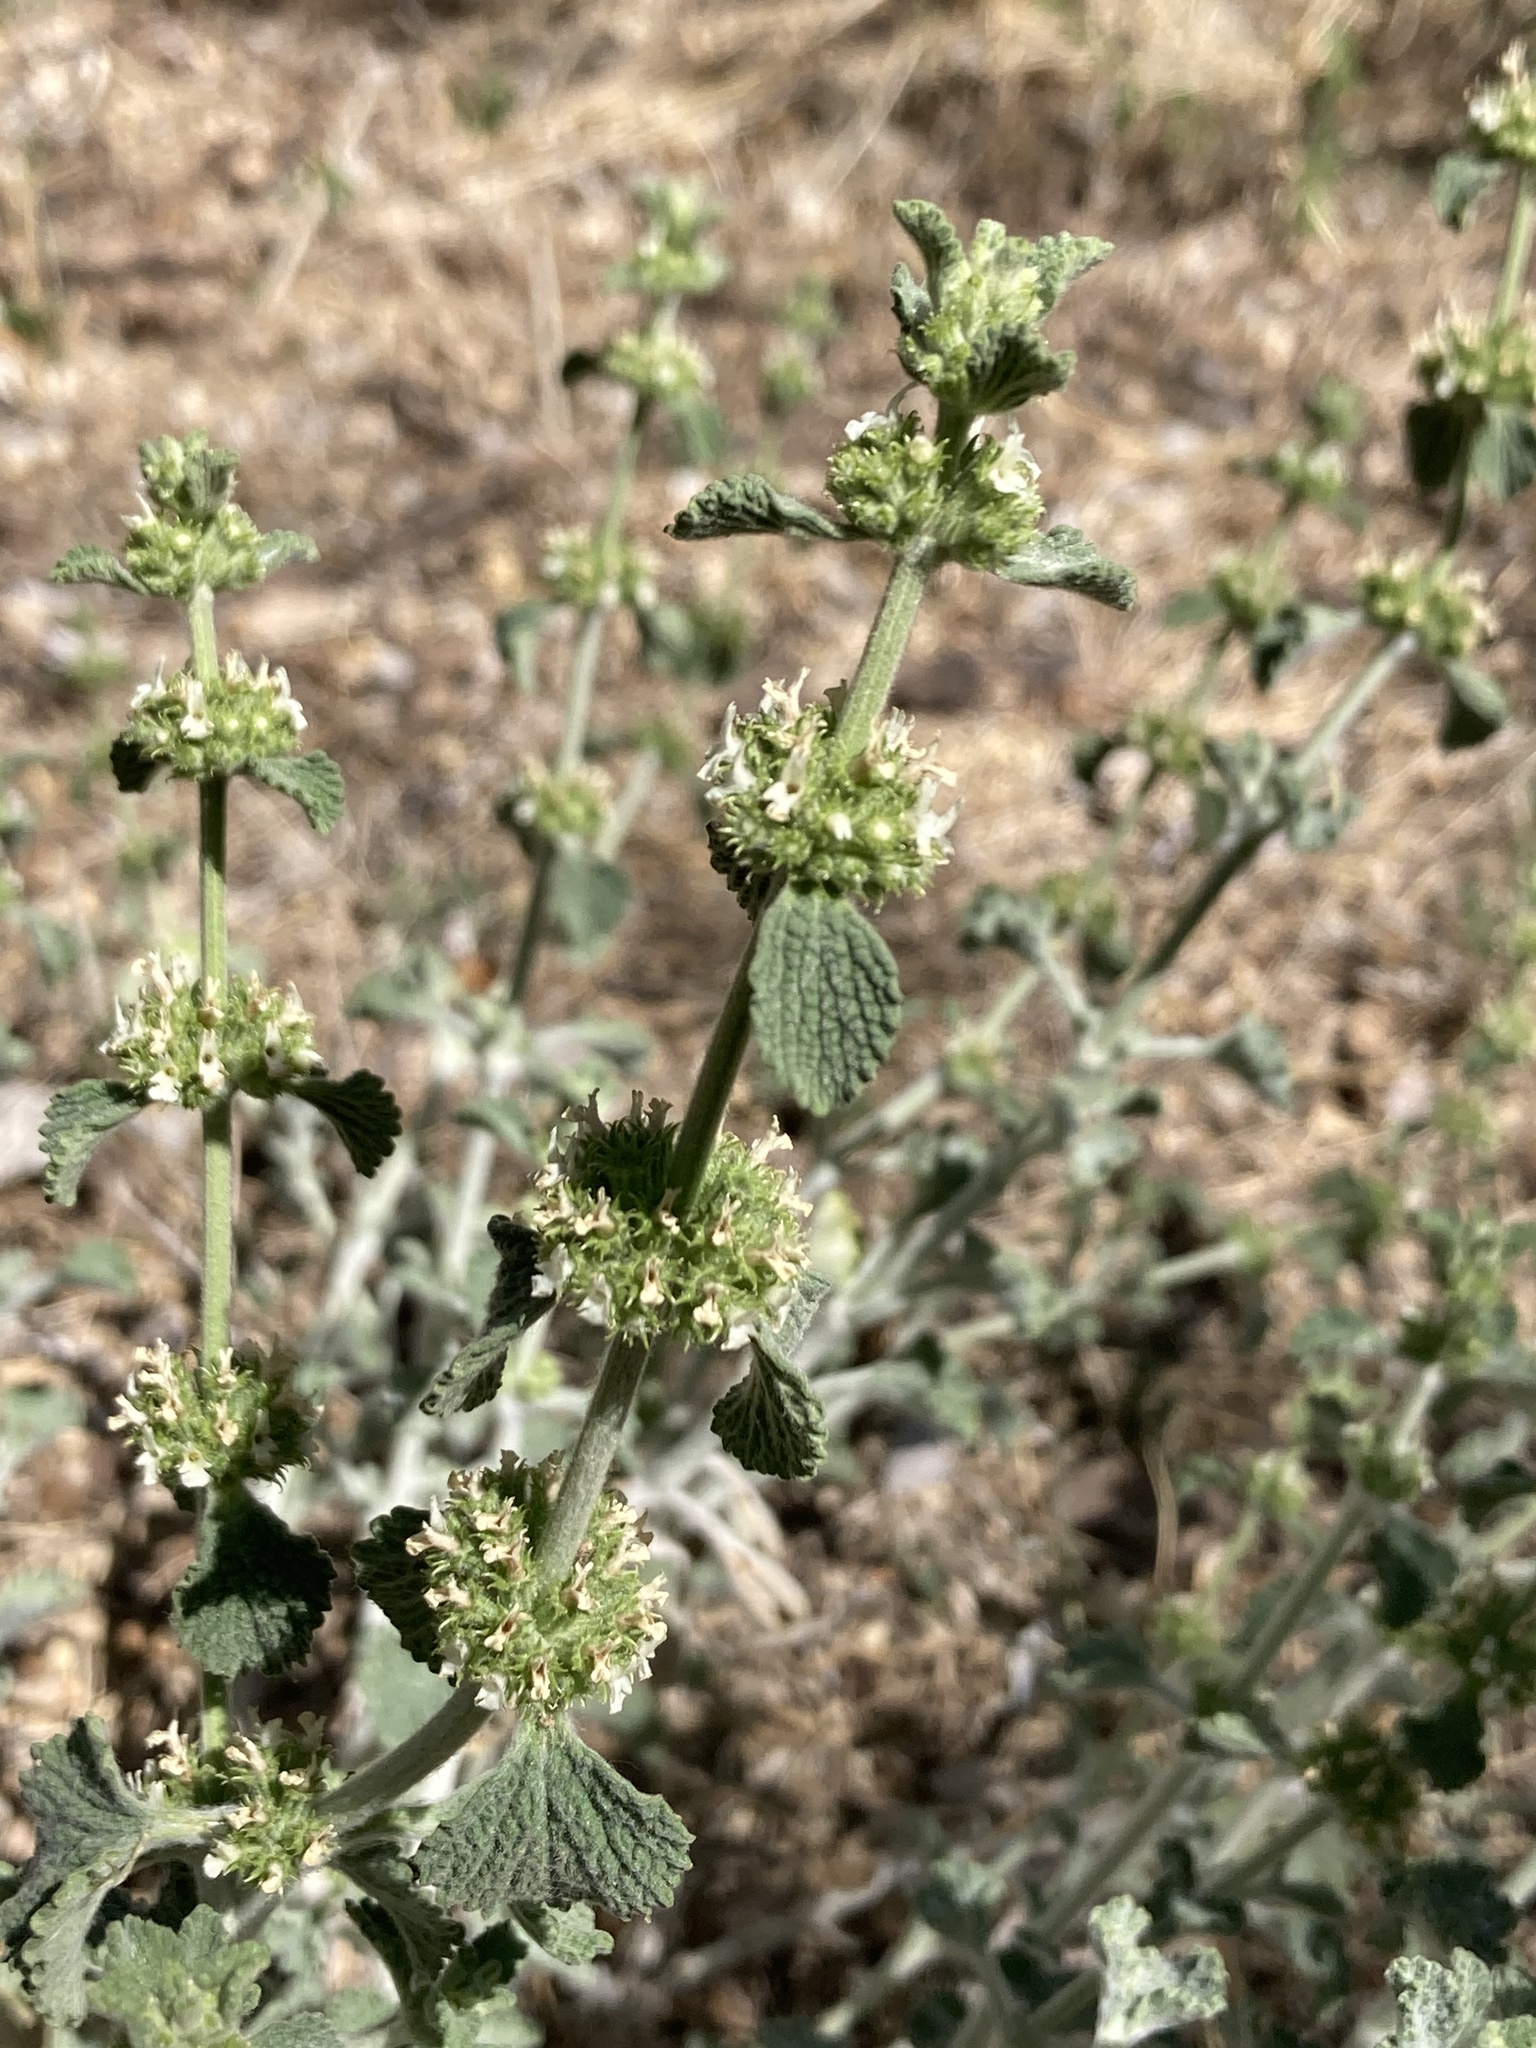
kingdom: Plantae
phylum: Tracheophyta
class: Magnoliopsida
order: Lamiales
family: Lamiaceae
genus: Marrubium
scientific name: Marrubium vulgare
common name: Horehound
